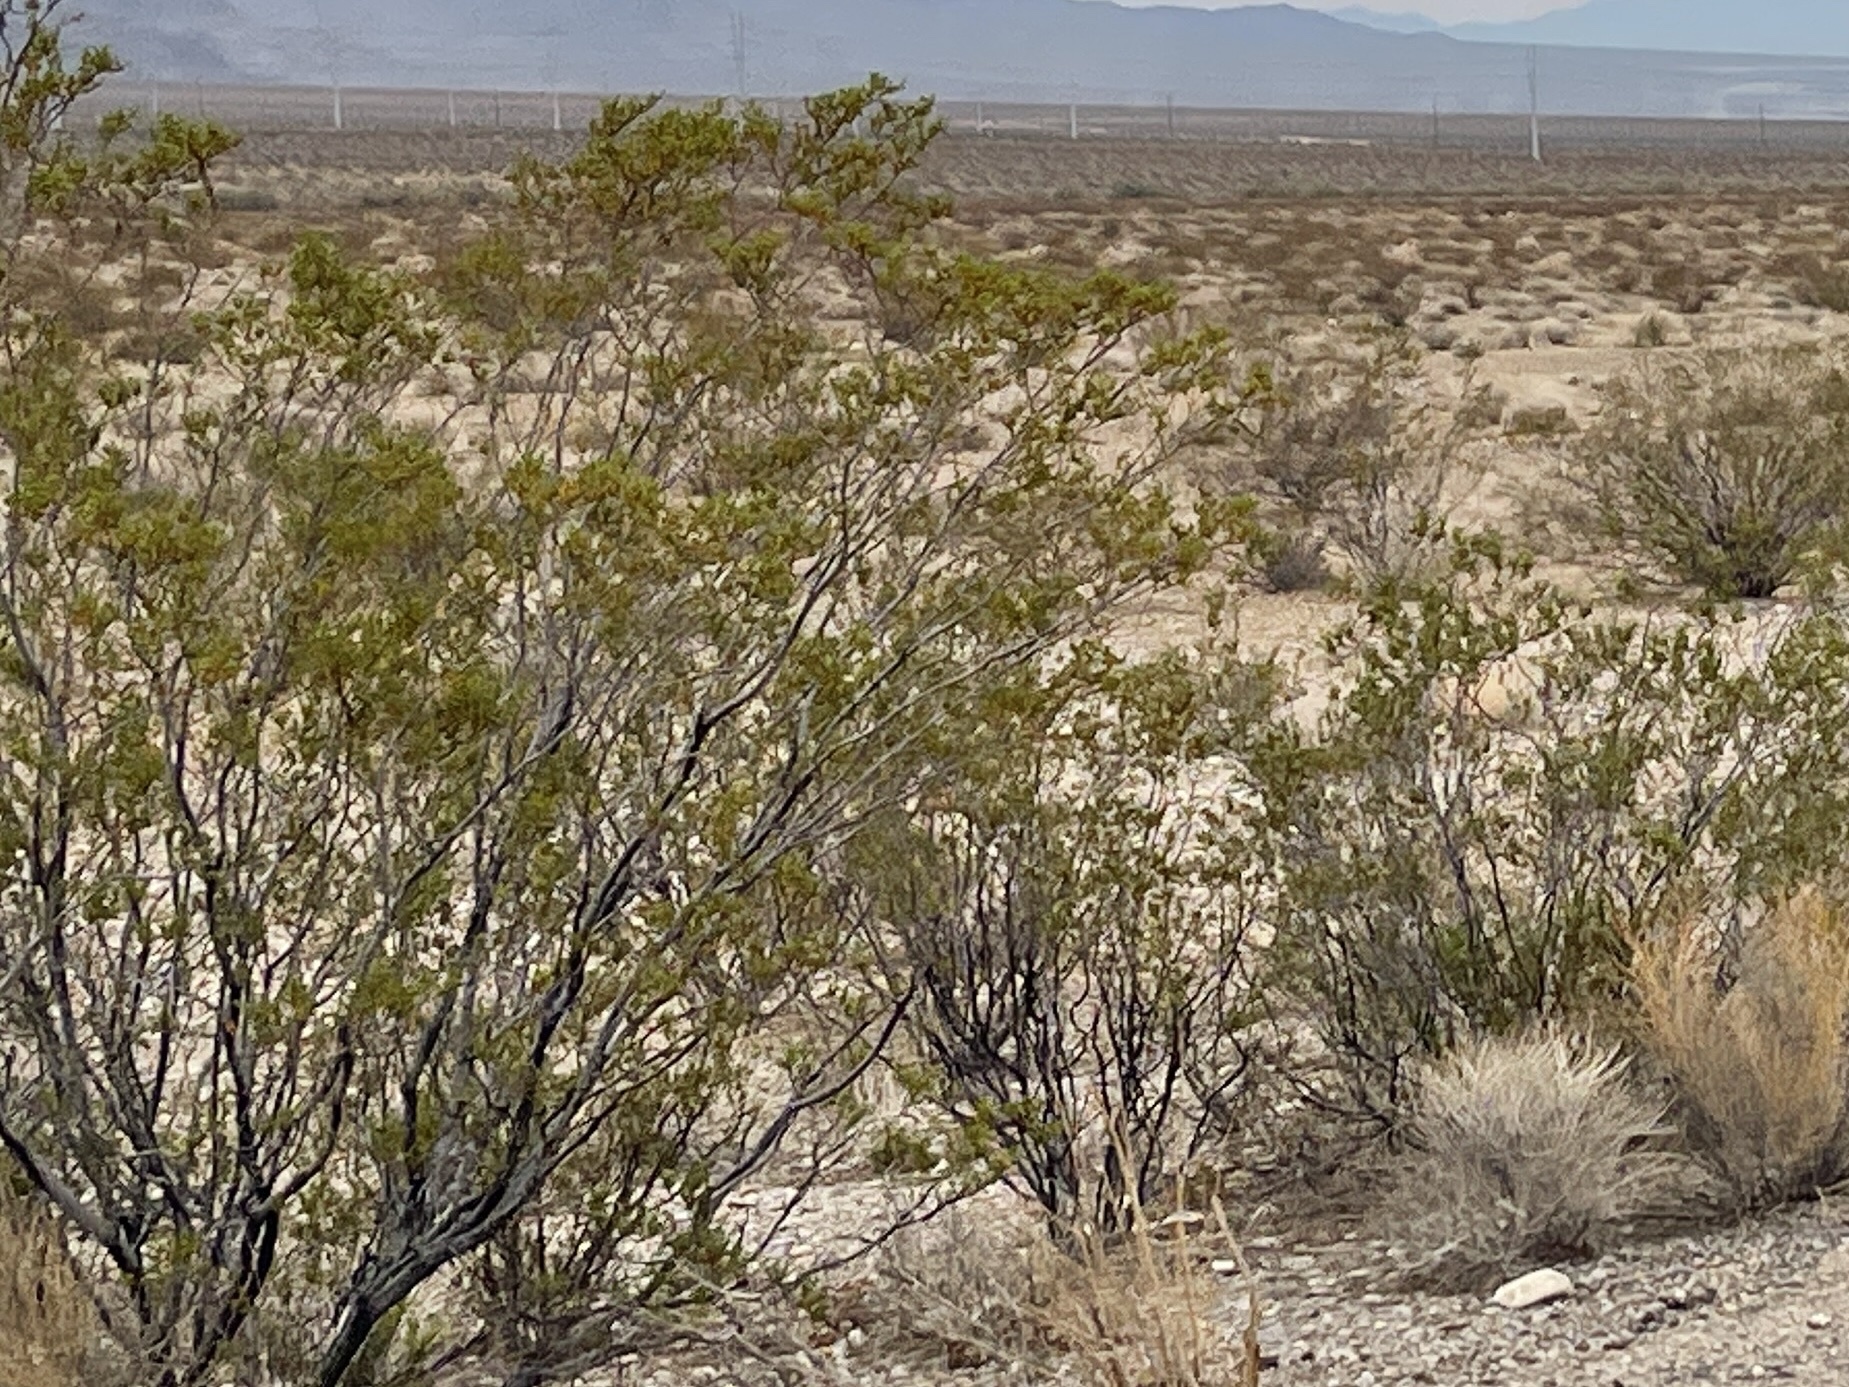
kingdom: Plantae
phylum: Tracheophyta
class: Magnoliopsida
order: Zygophyllales
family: Zygophyllaceae
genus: Larrea
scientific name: Larrea tridentata
